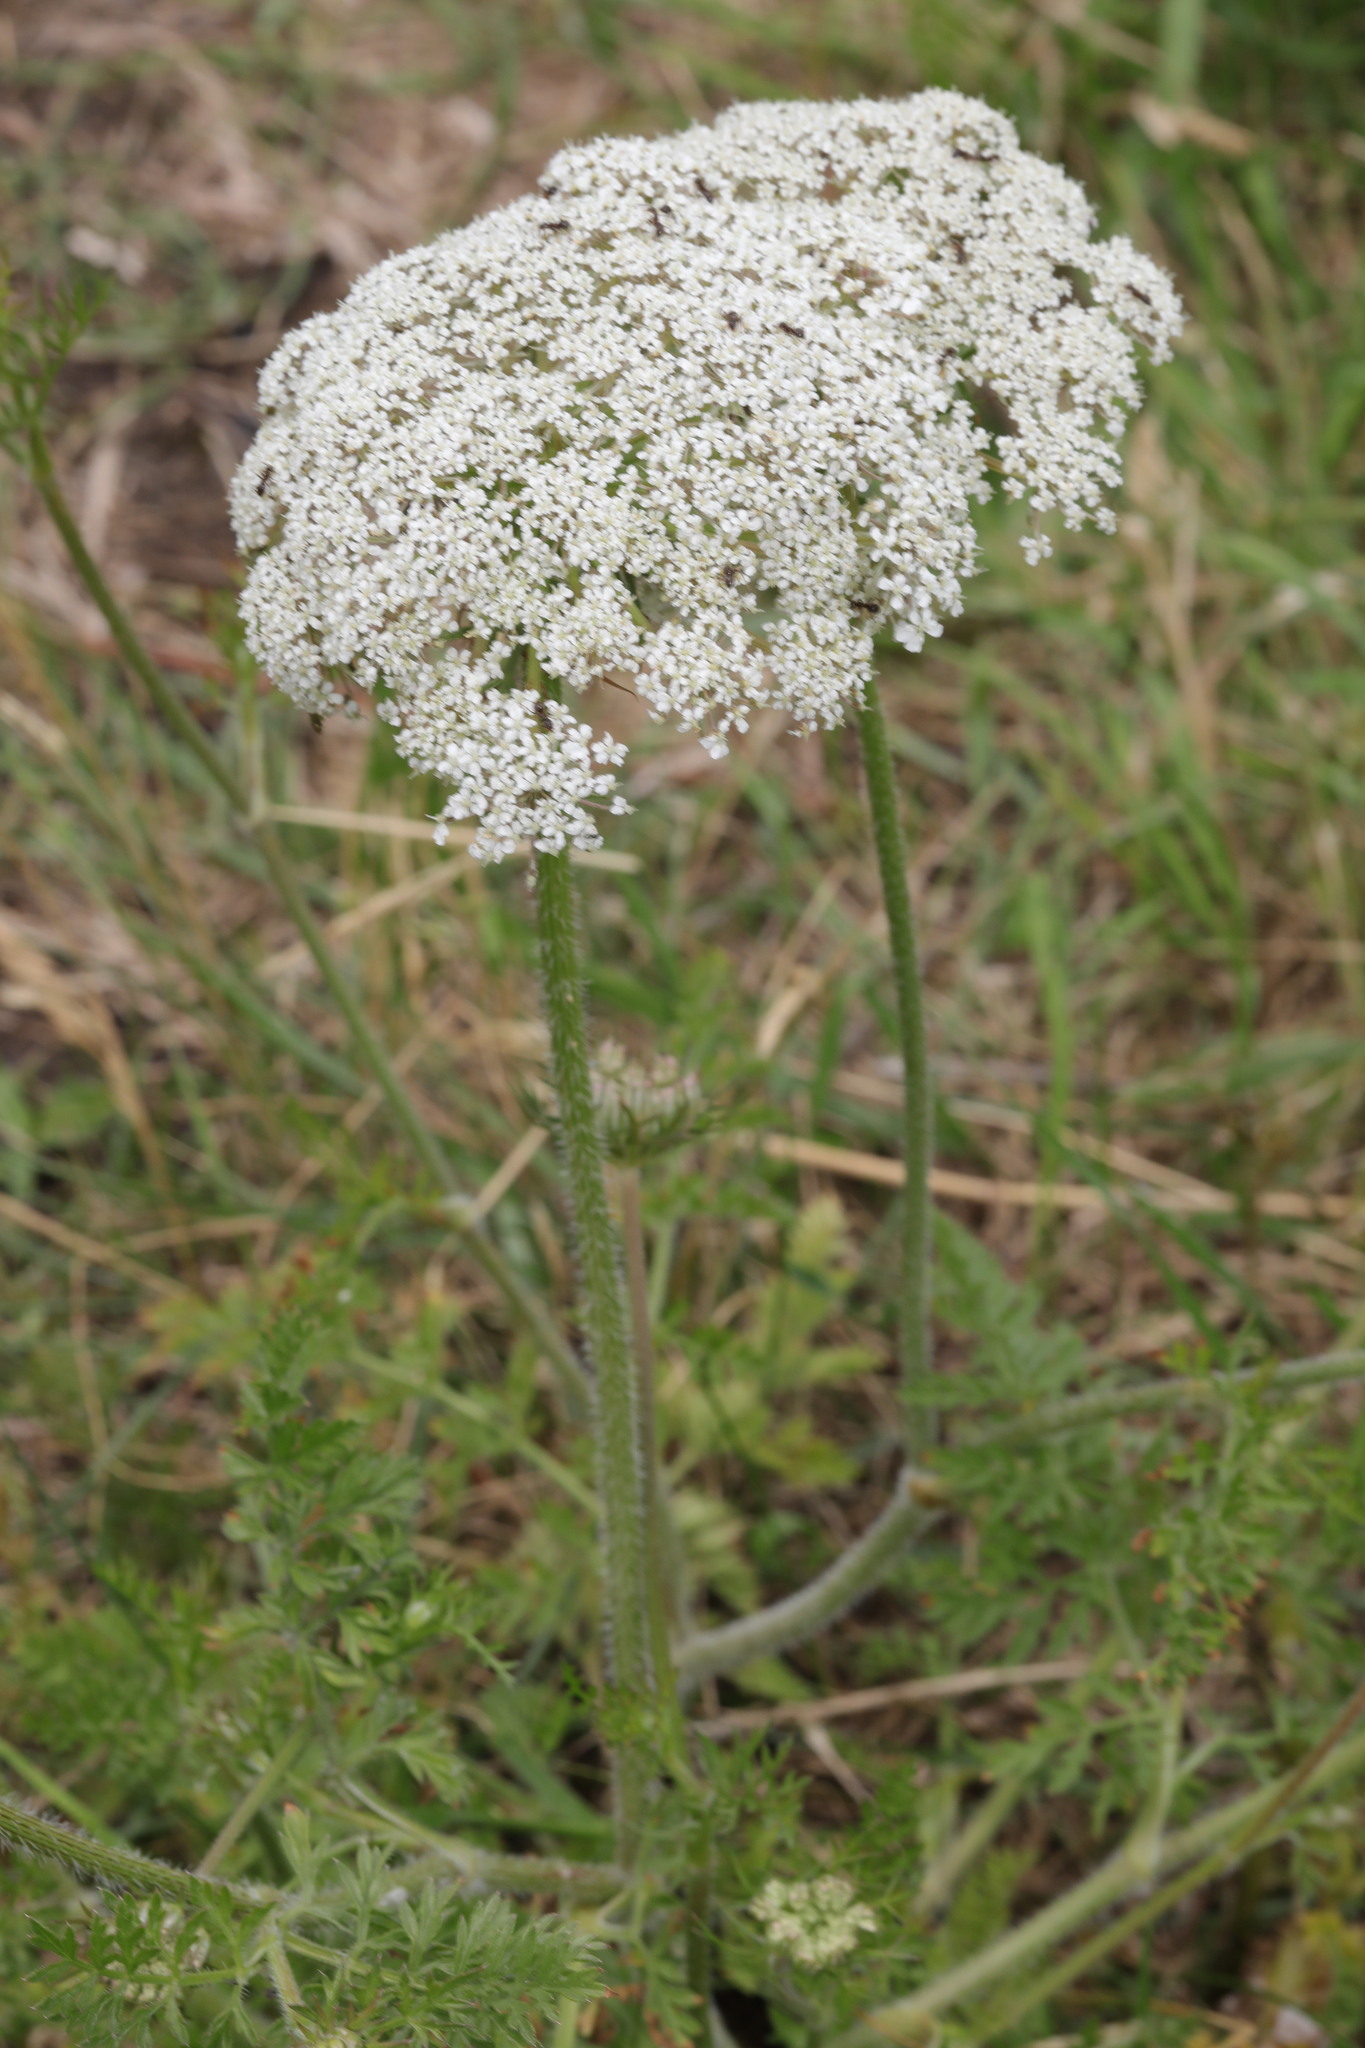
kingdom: Plantae
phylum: Tracheophyta
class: Magnoliopsida
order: Apiales
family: Apiaceae
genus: Daucus
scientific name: Daucus carota
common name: Wild carrot
